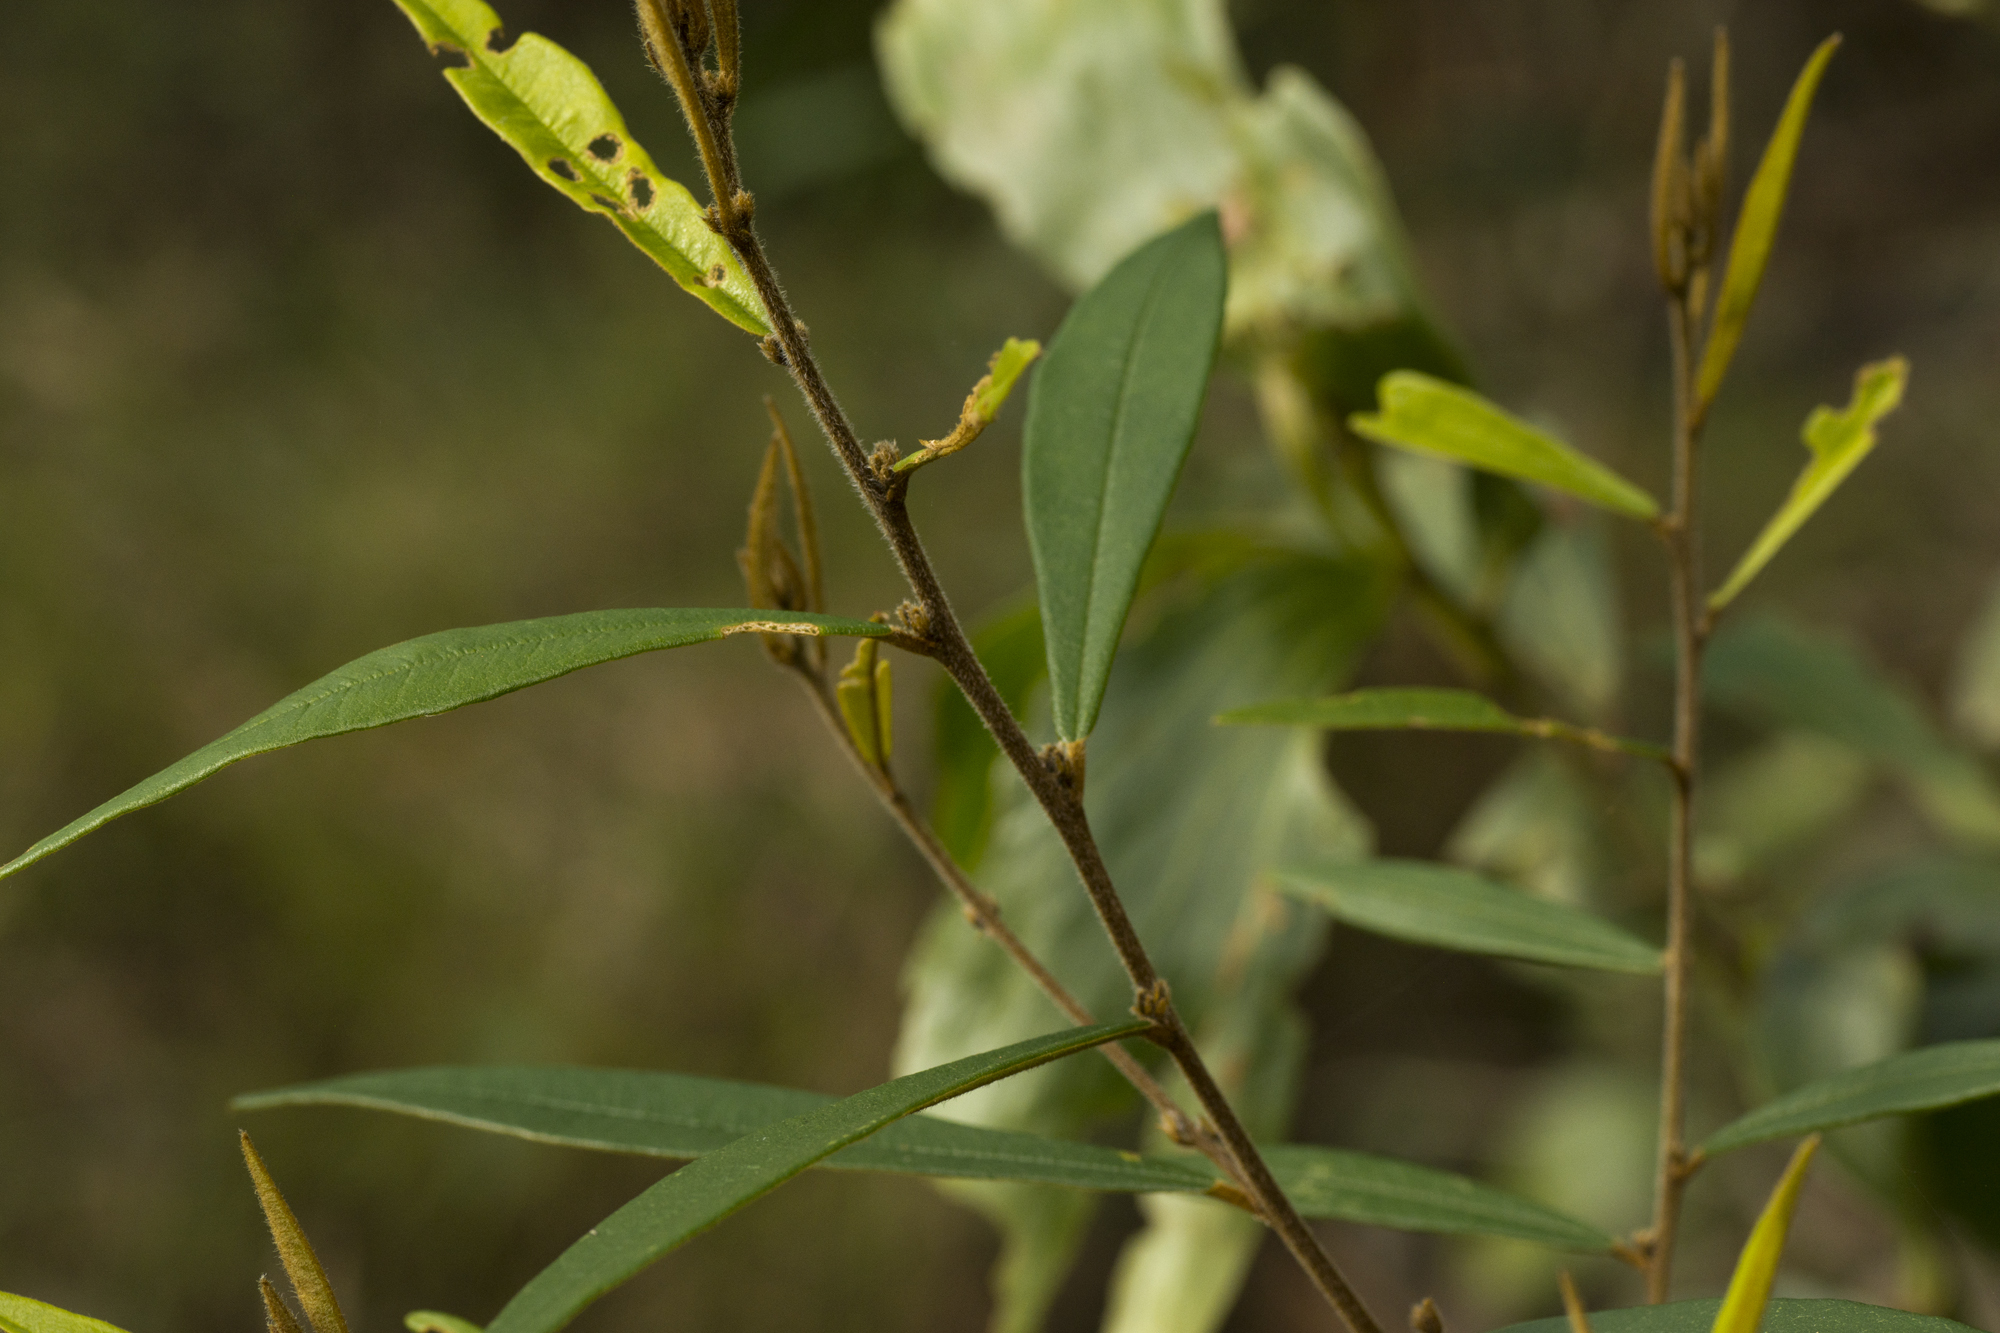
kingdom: Plantae
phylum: Tracheophyta
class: Magnoliopsida
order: Fabales
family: Fabaceae
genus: Hovea
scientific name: Hovea acutifolia
